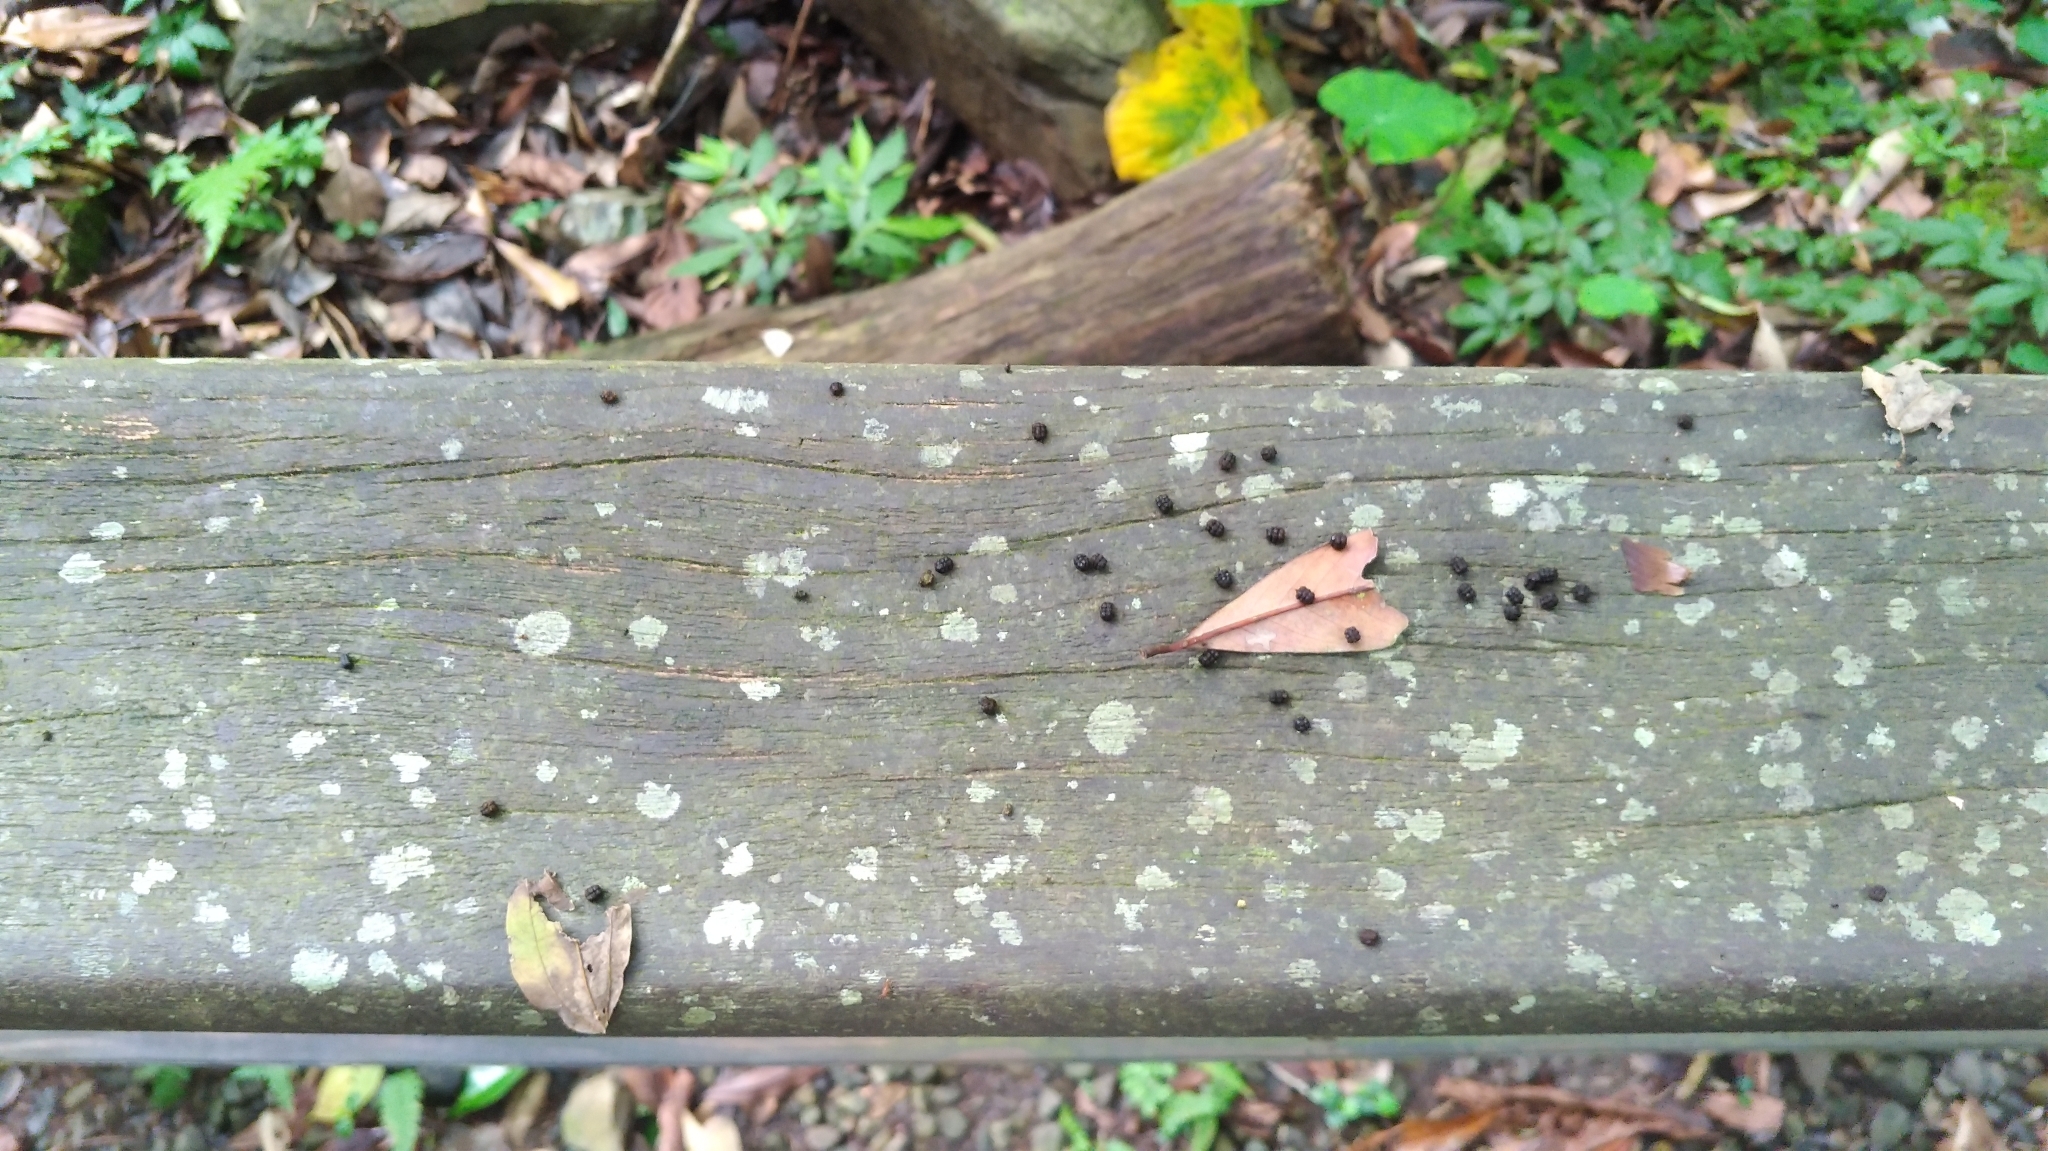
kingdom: Animalia
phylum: Arthropoda
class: Insecta
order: Lepidoptera
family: Erebidae
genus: Macrobrochis
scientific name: Macrobrochis gigas
